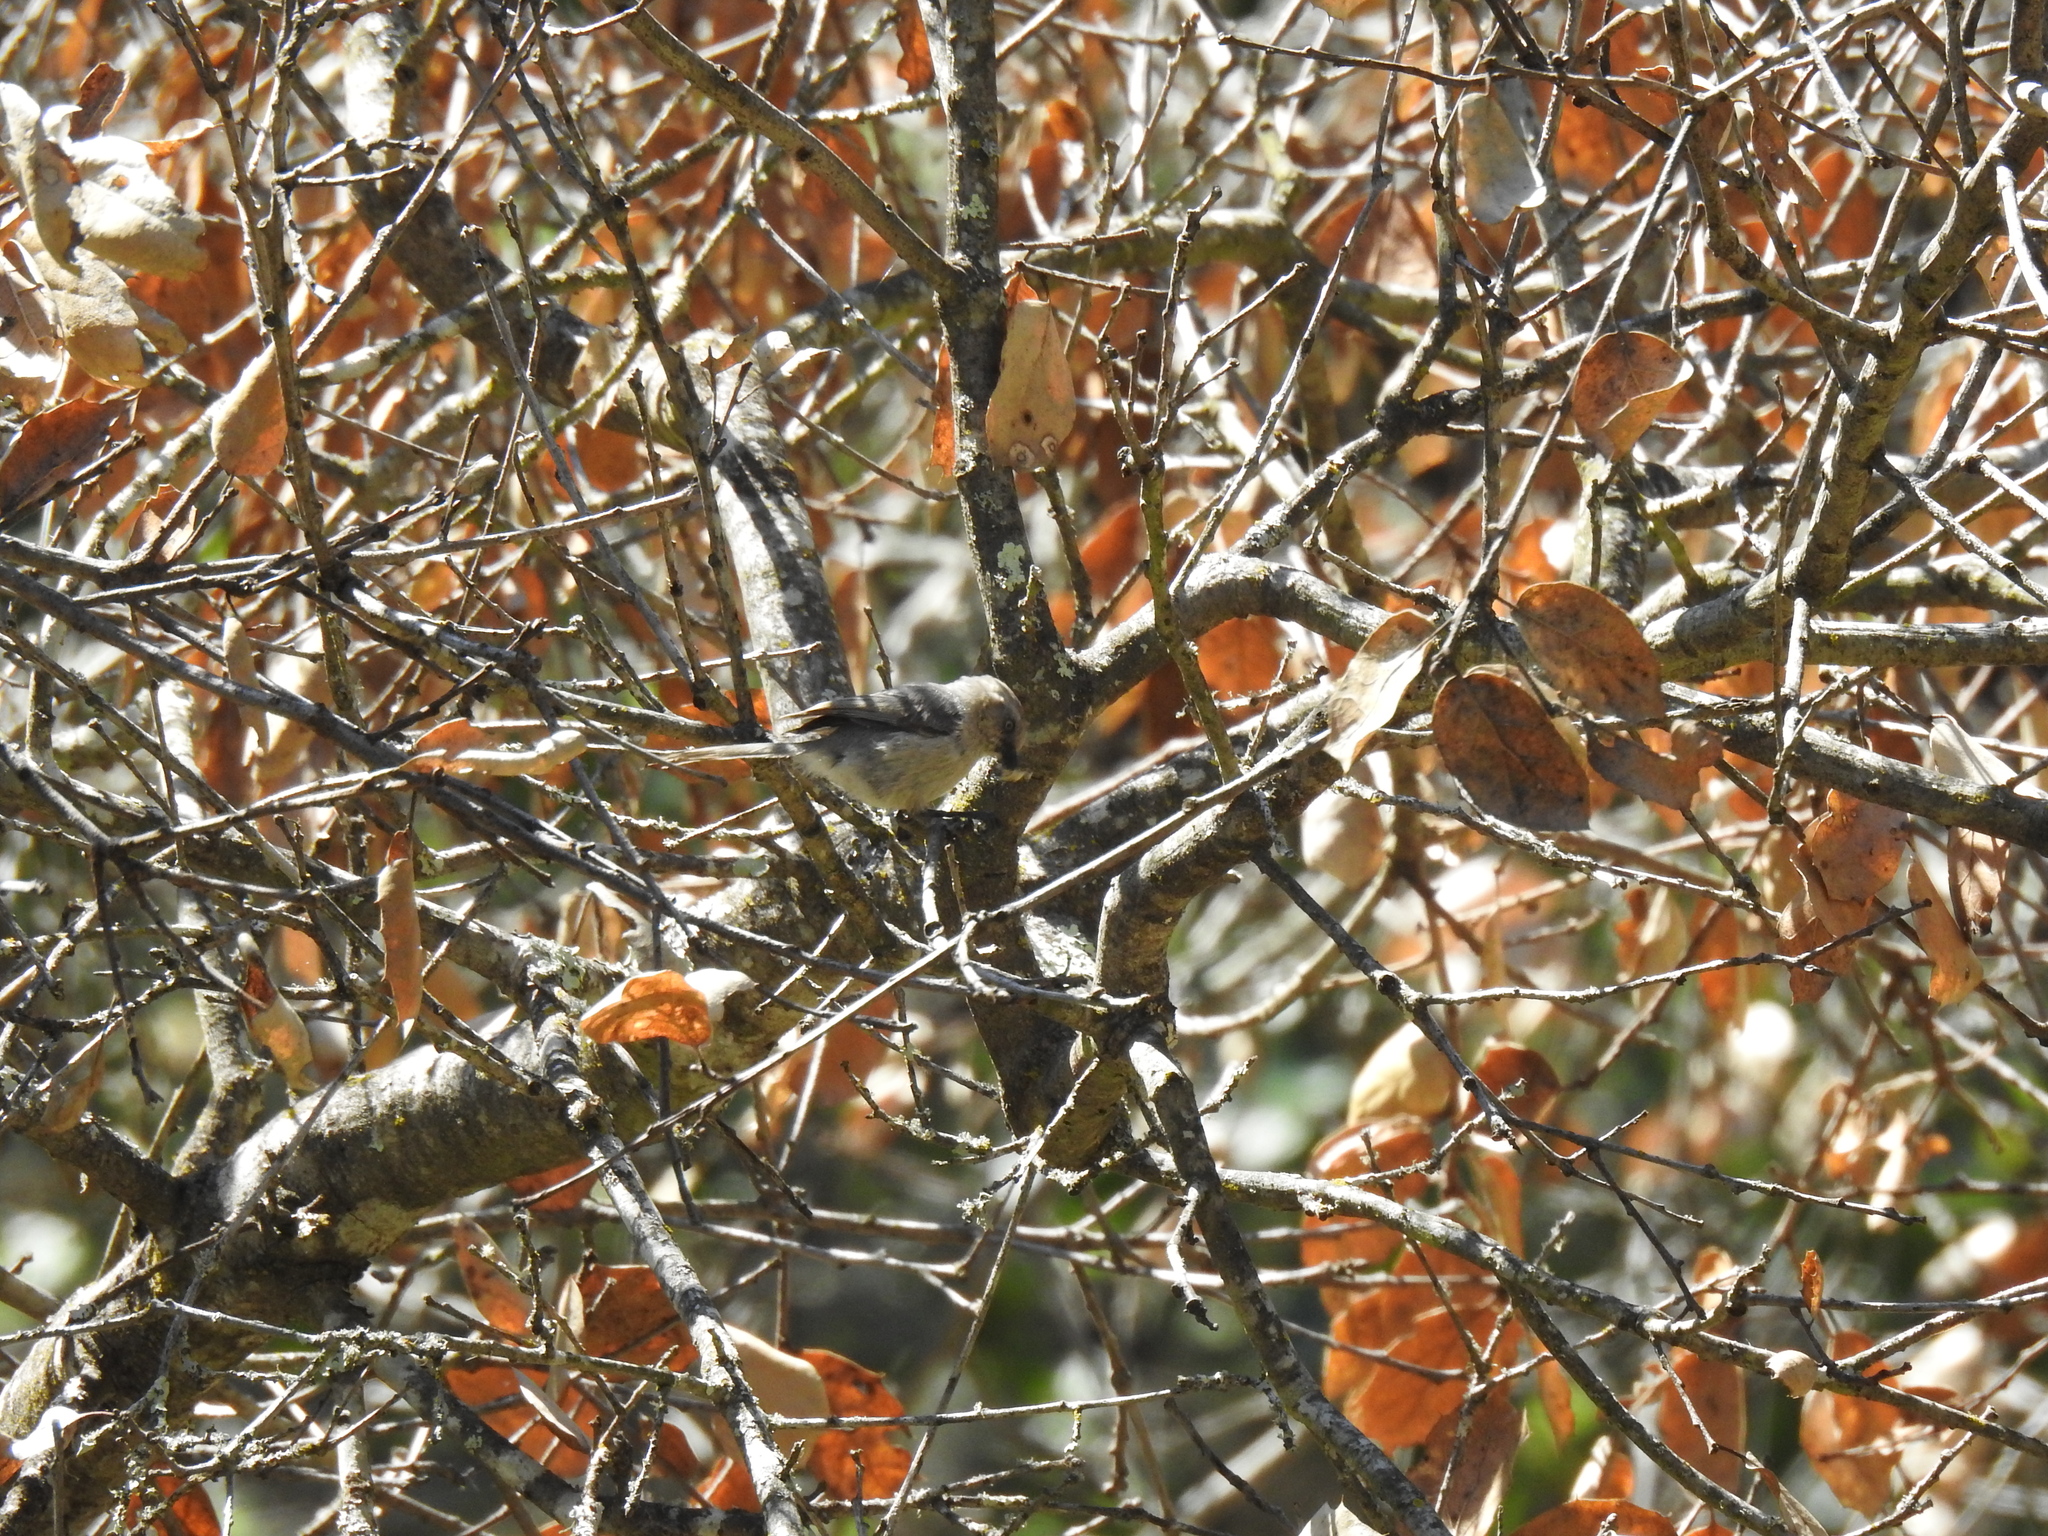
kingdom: Animalia
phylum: Chordata
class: Aves
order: Passeriformes
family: Aegithalidae
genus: Psaltriparus
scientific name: Psaltriparus minimus
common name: American bushtit
